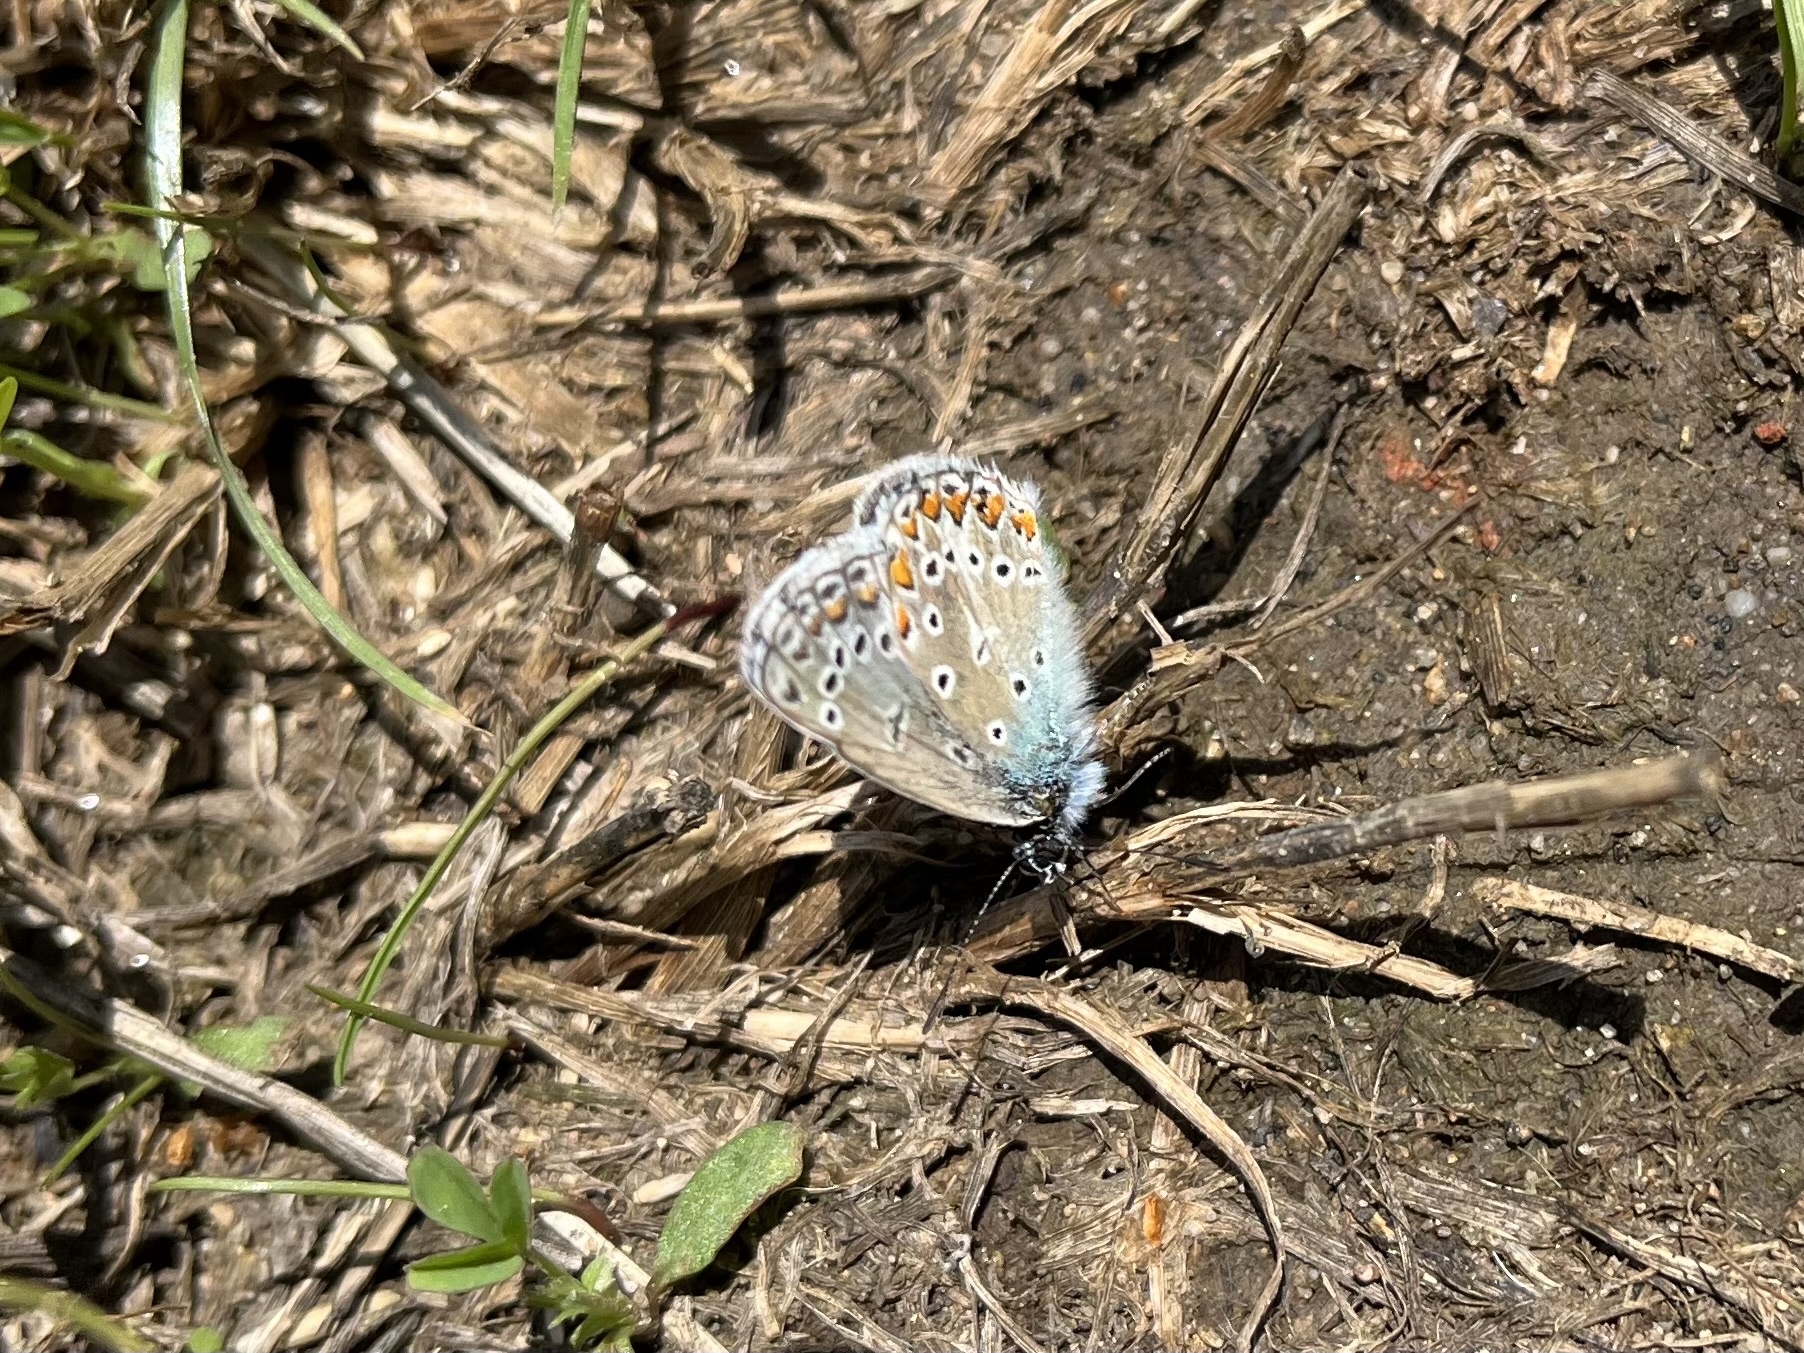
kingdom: Animalia
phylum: Arthropoda
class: Insecta
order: Lepidoptera
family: Lycaenidae
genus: Polyommatus
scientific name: Polyommatus icarus
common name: Common blue
